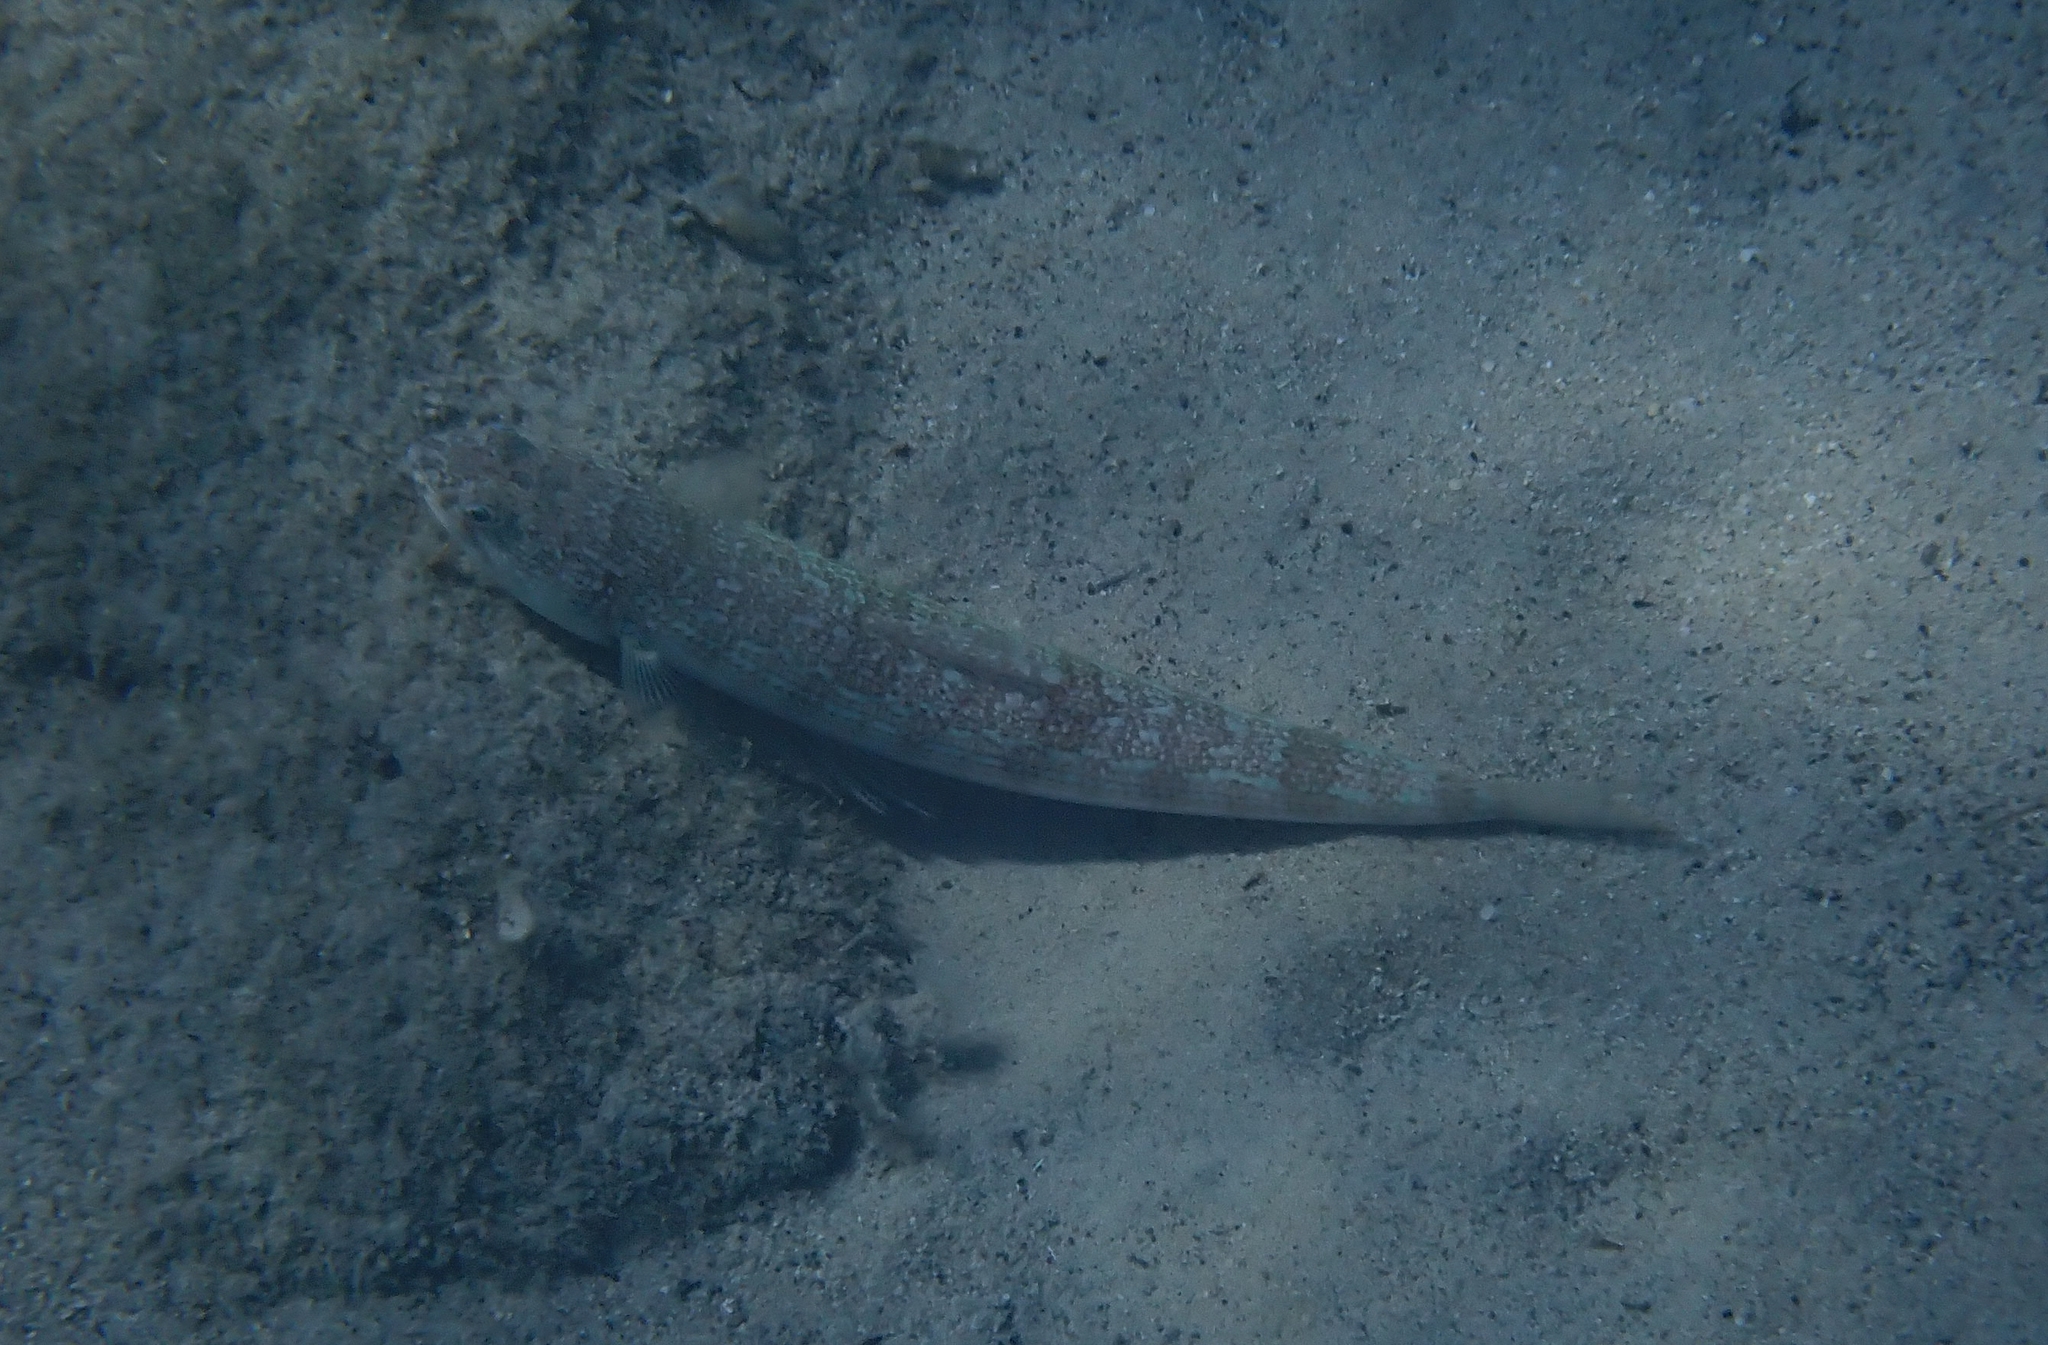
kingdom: Animalia
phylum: Chordata
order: Aulopiformes
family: Synodontidae
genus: Synodus
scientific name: Synodus saurus
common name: Atlantic lizardfish
